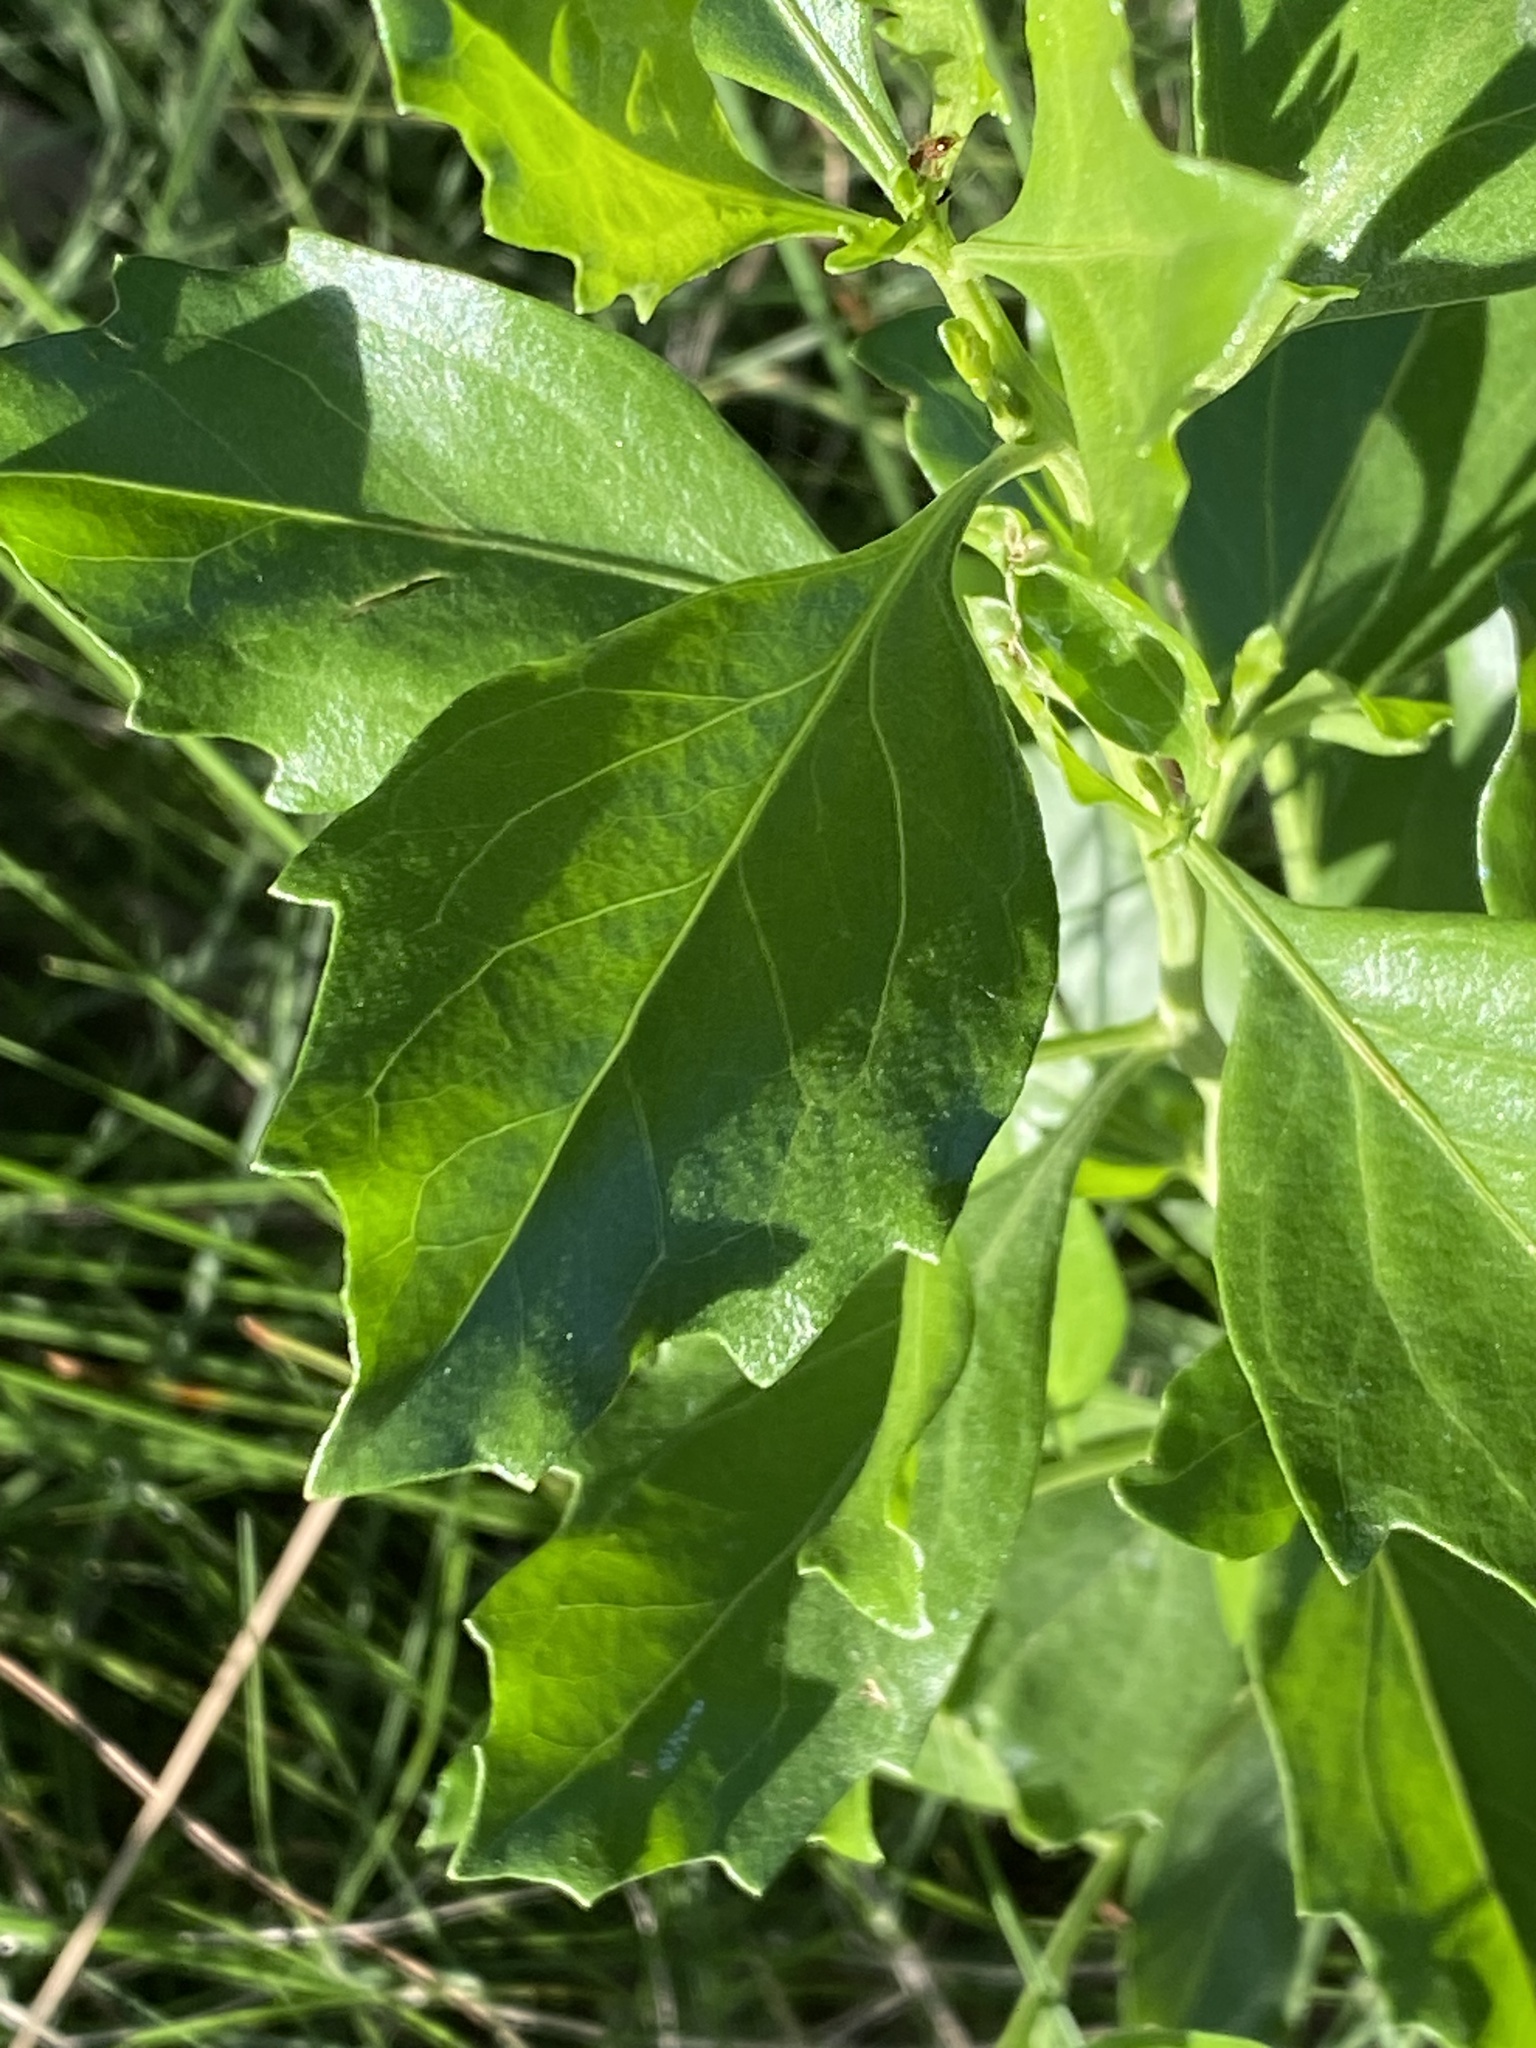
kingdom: Plantae
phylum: Tracheophyta
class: Magnoliopsida
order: Asterales
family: Asteraceae
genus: Baccharis
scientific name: Baccharis halimifolia
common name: Eastern baccharis
